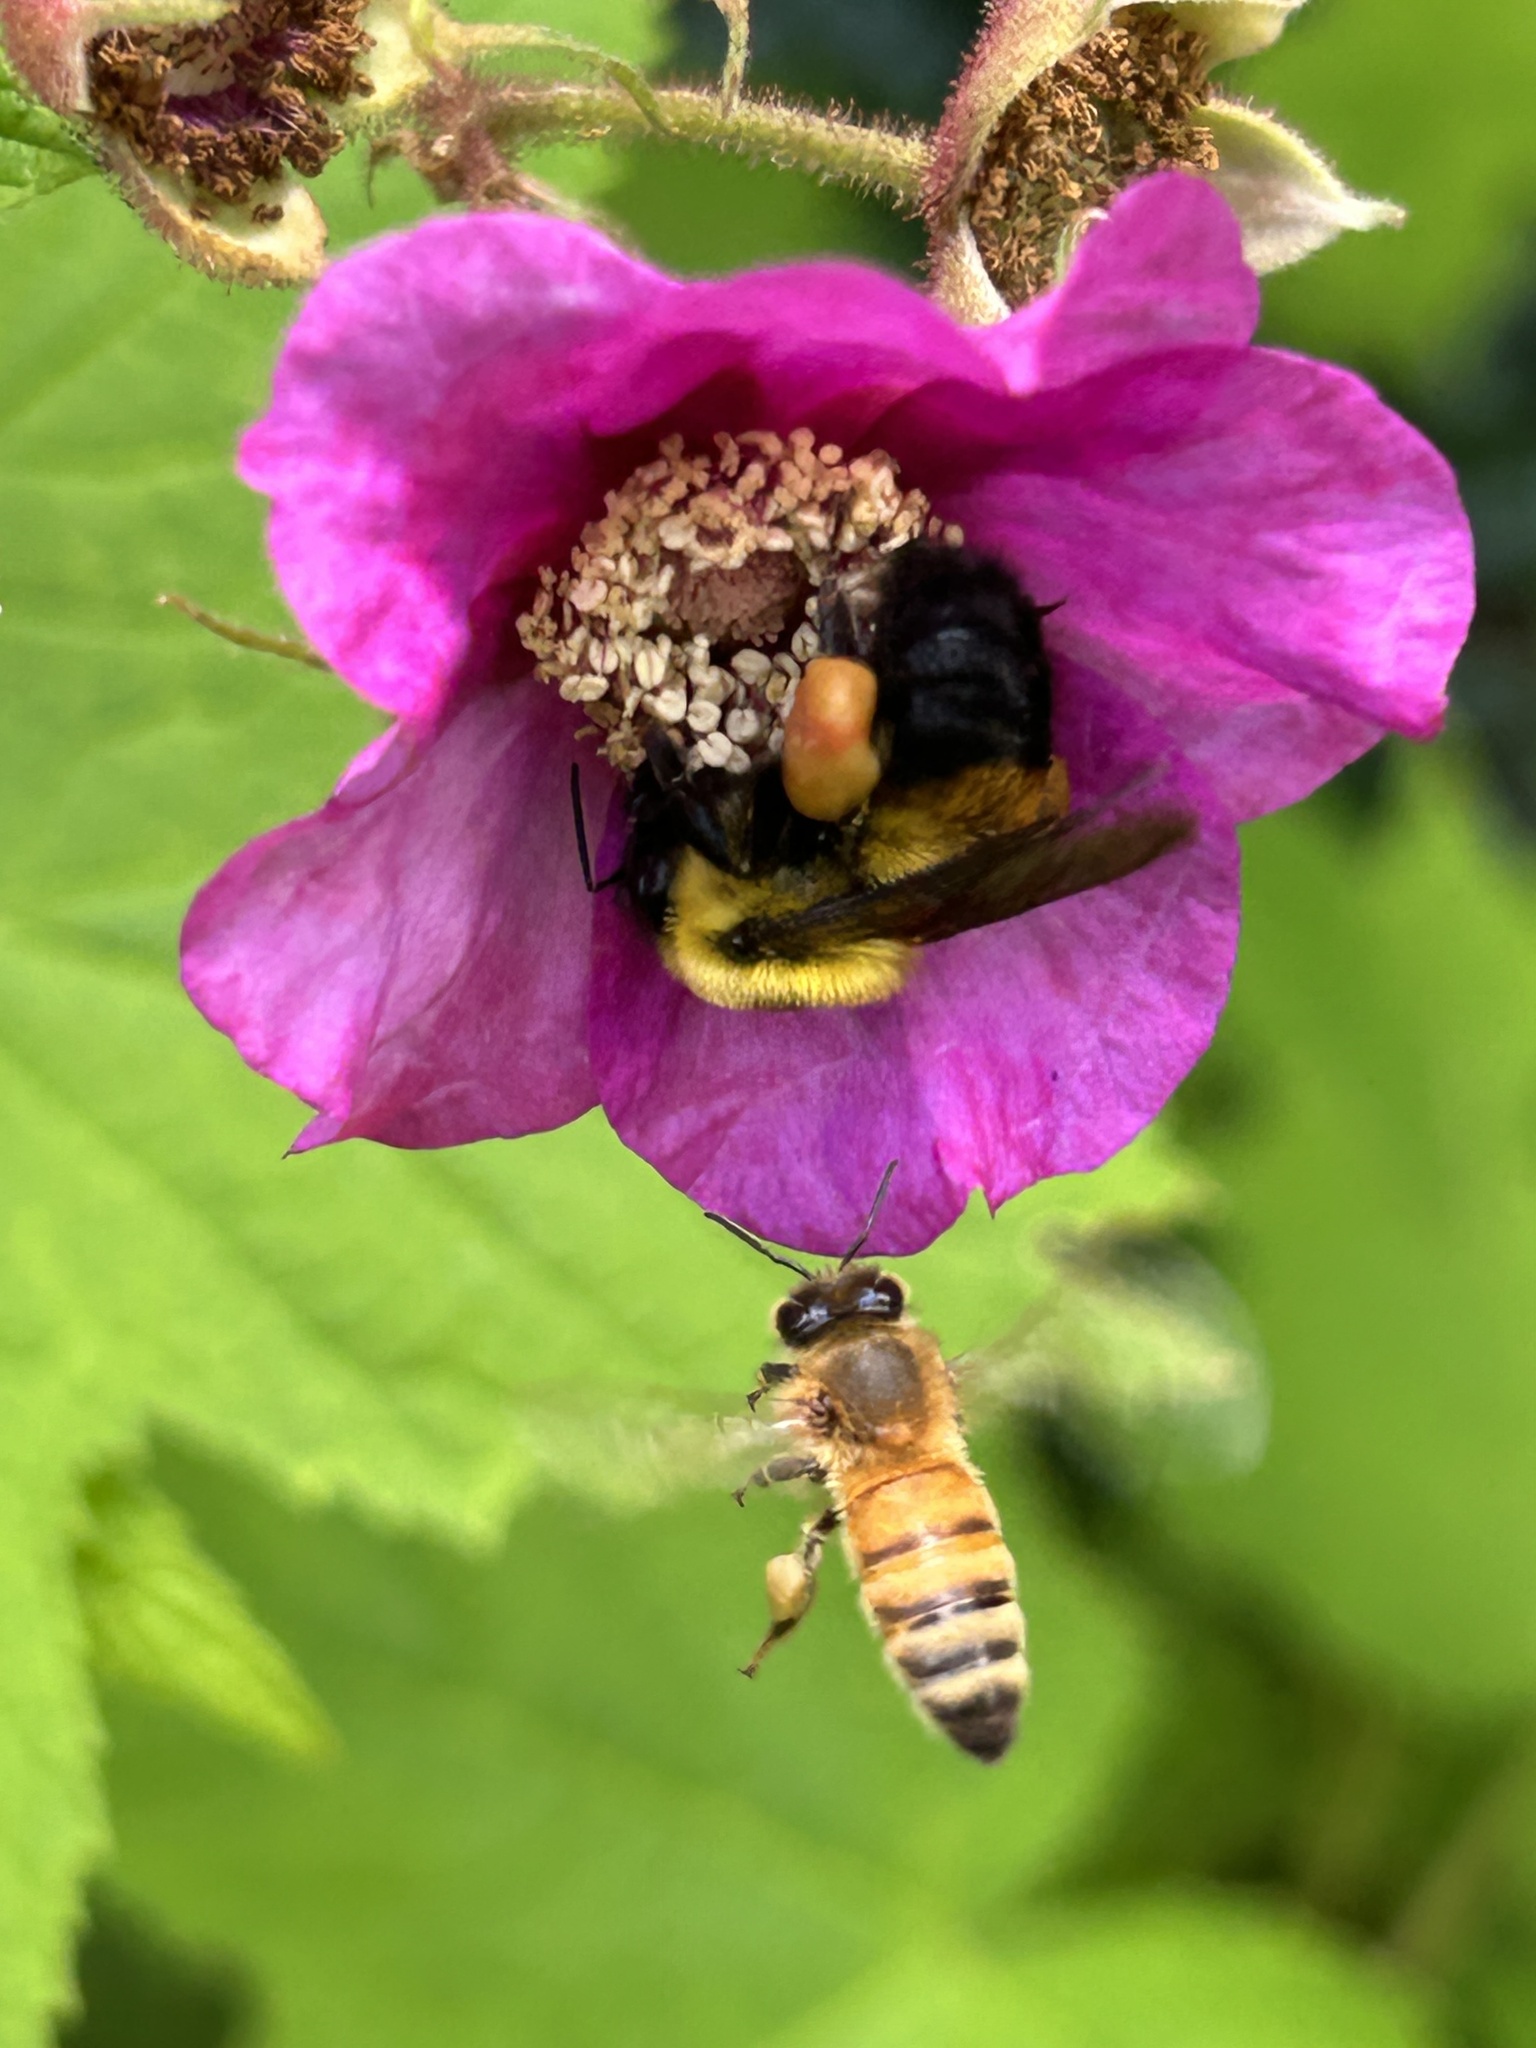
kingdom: Animalia
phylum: Arthropoda
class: Insecta
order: Hymenoptera
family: Apidae
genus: Bombus
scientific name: Bombus griseocollis
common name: Brown-belted bumble bee
